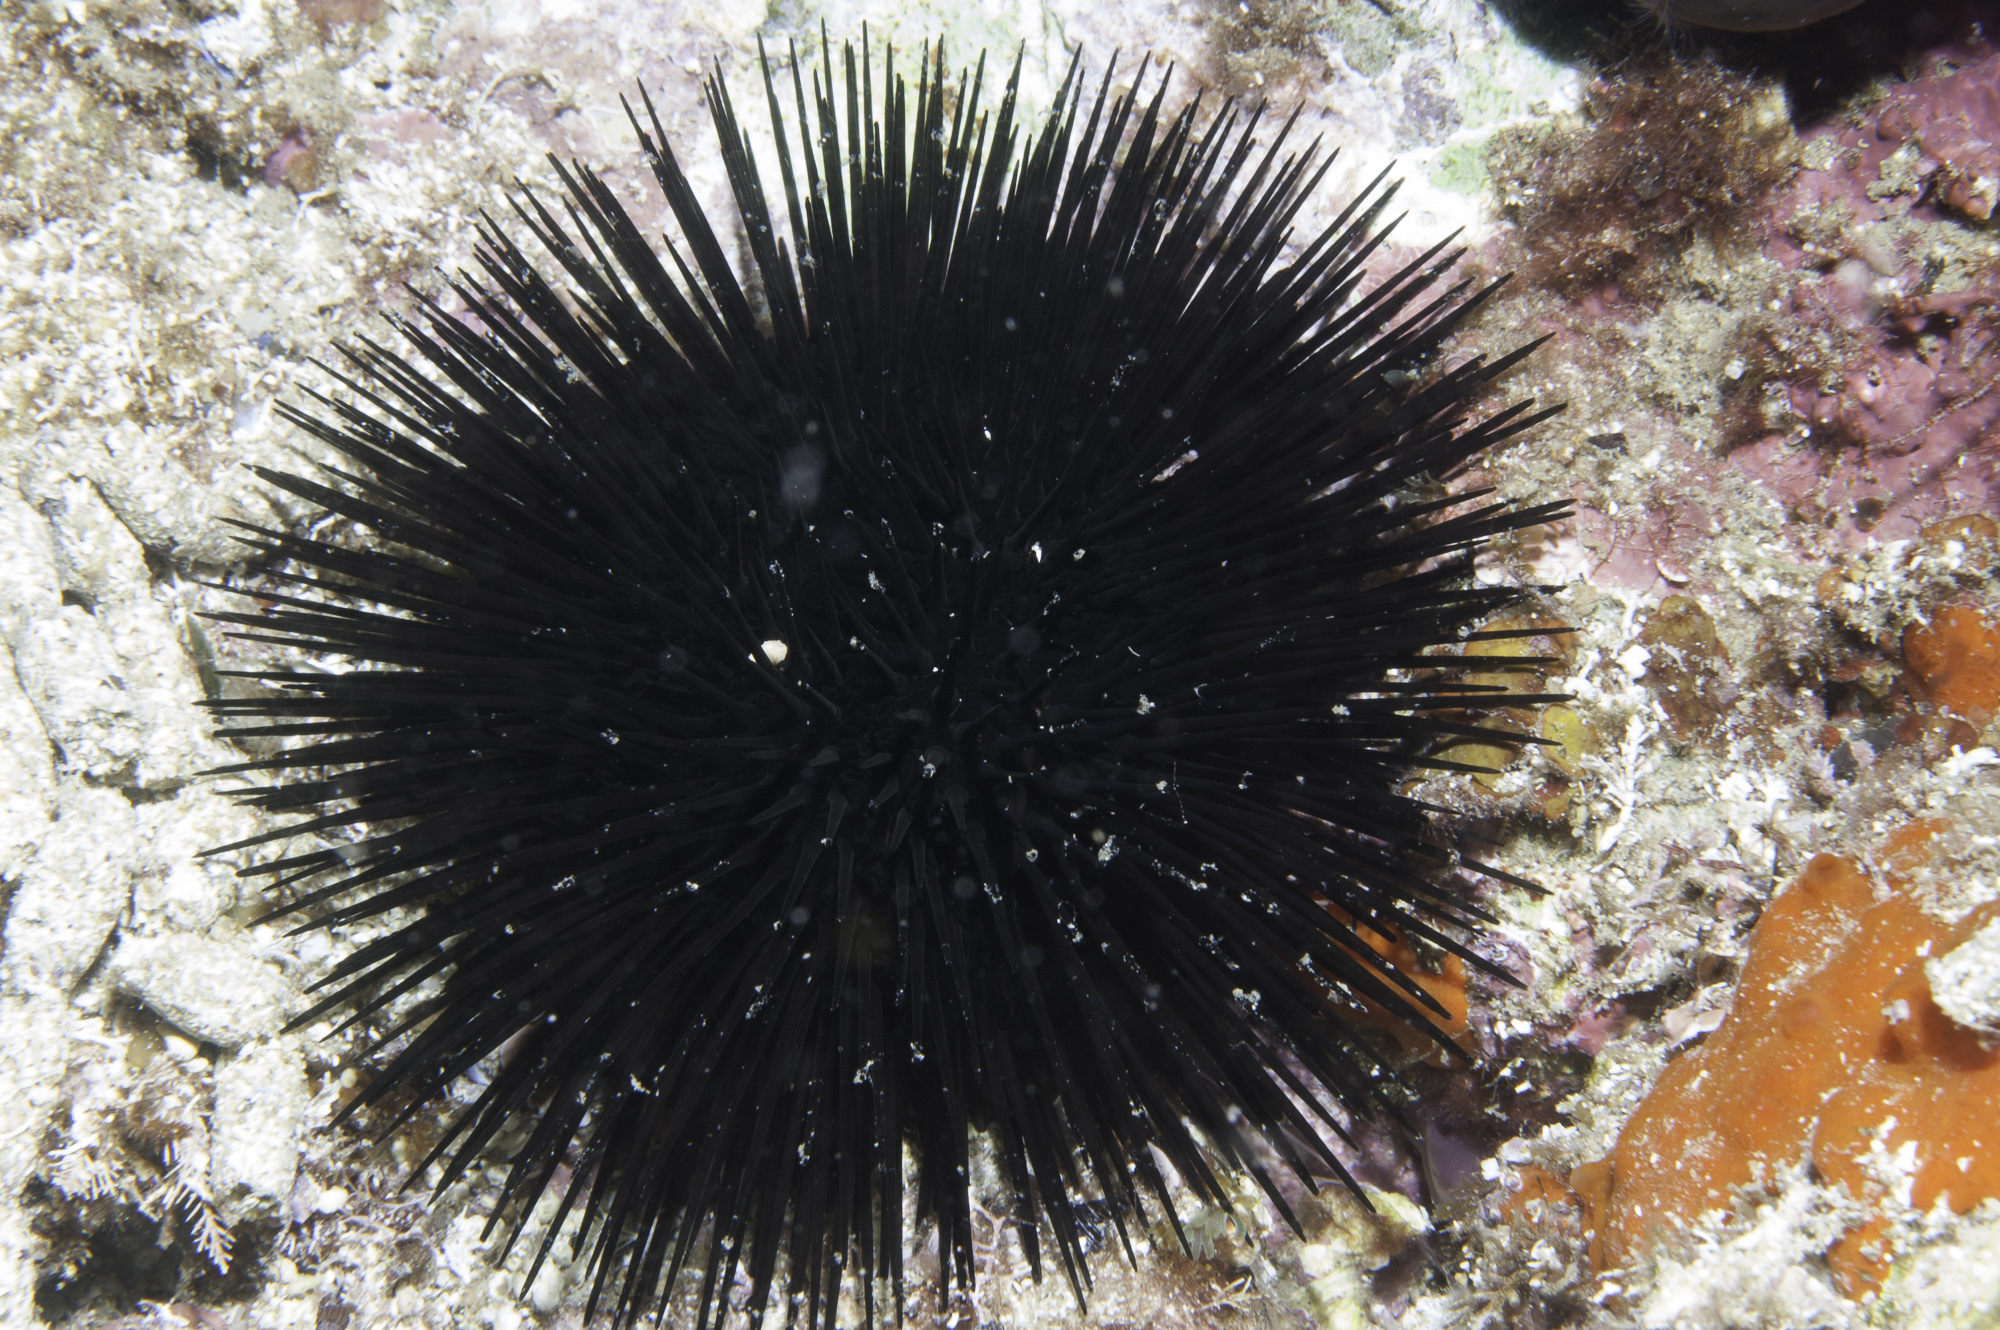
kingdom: Animalia
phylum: Echinodermata
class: Echinoidea
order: Arbacioida
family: Arbaciidae
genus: Arbacia
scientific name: Arbacia lixula
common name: Black sea urchin
